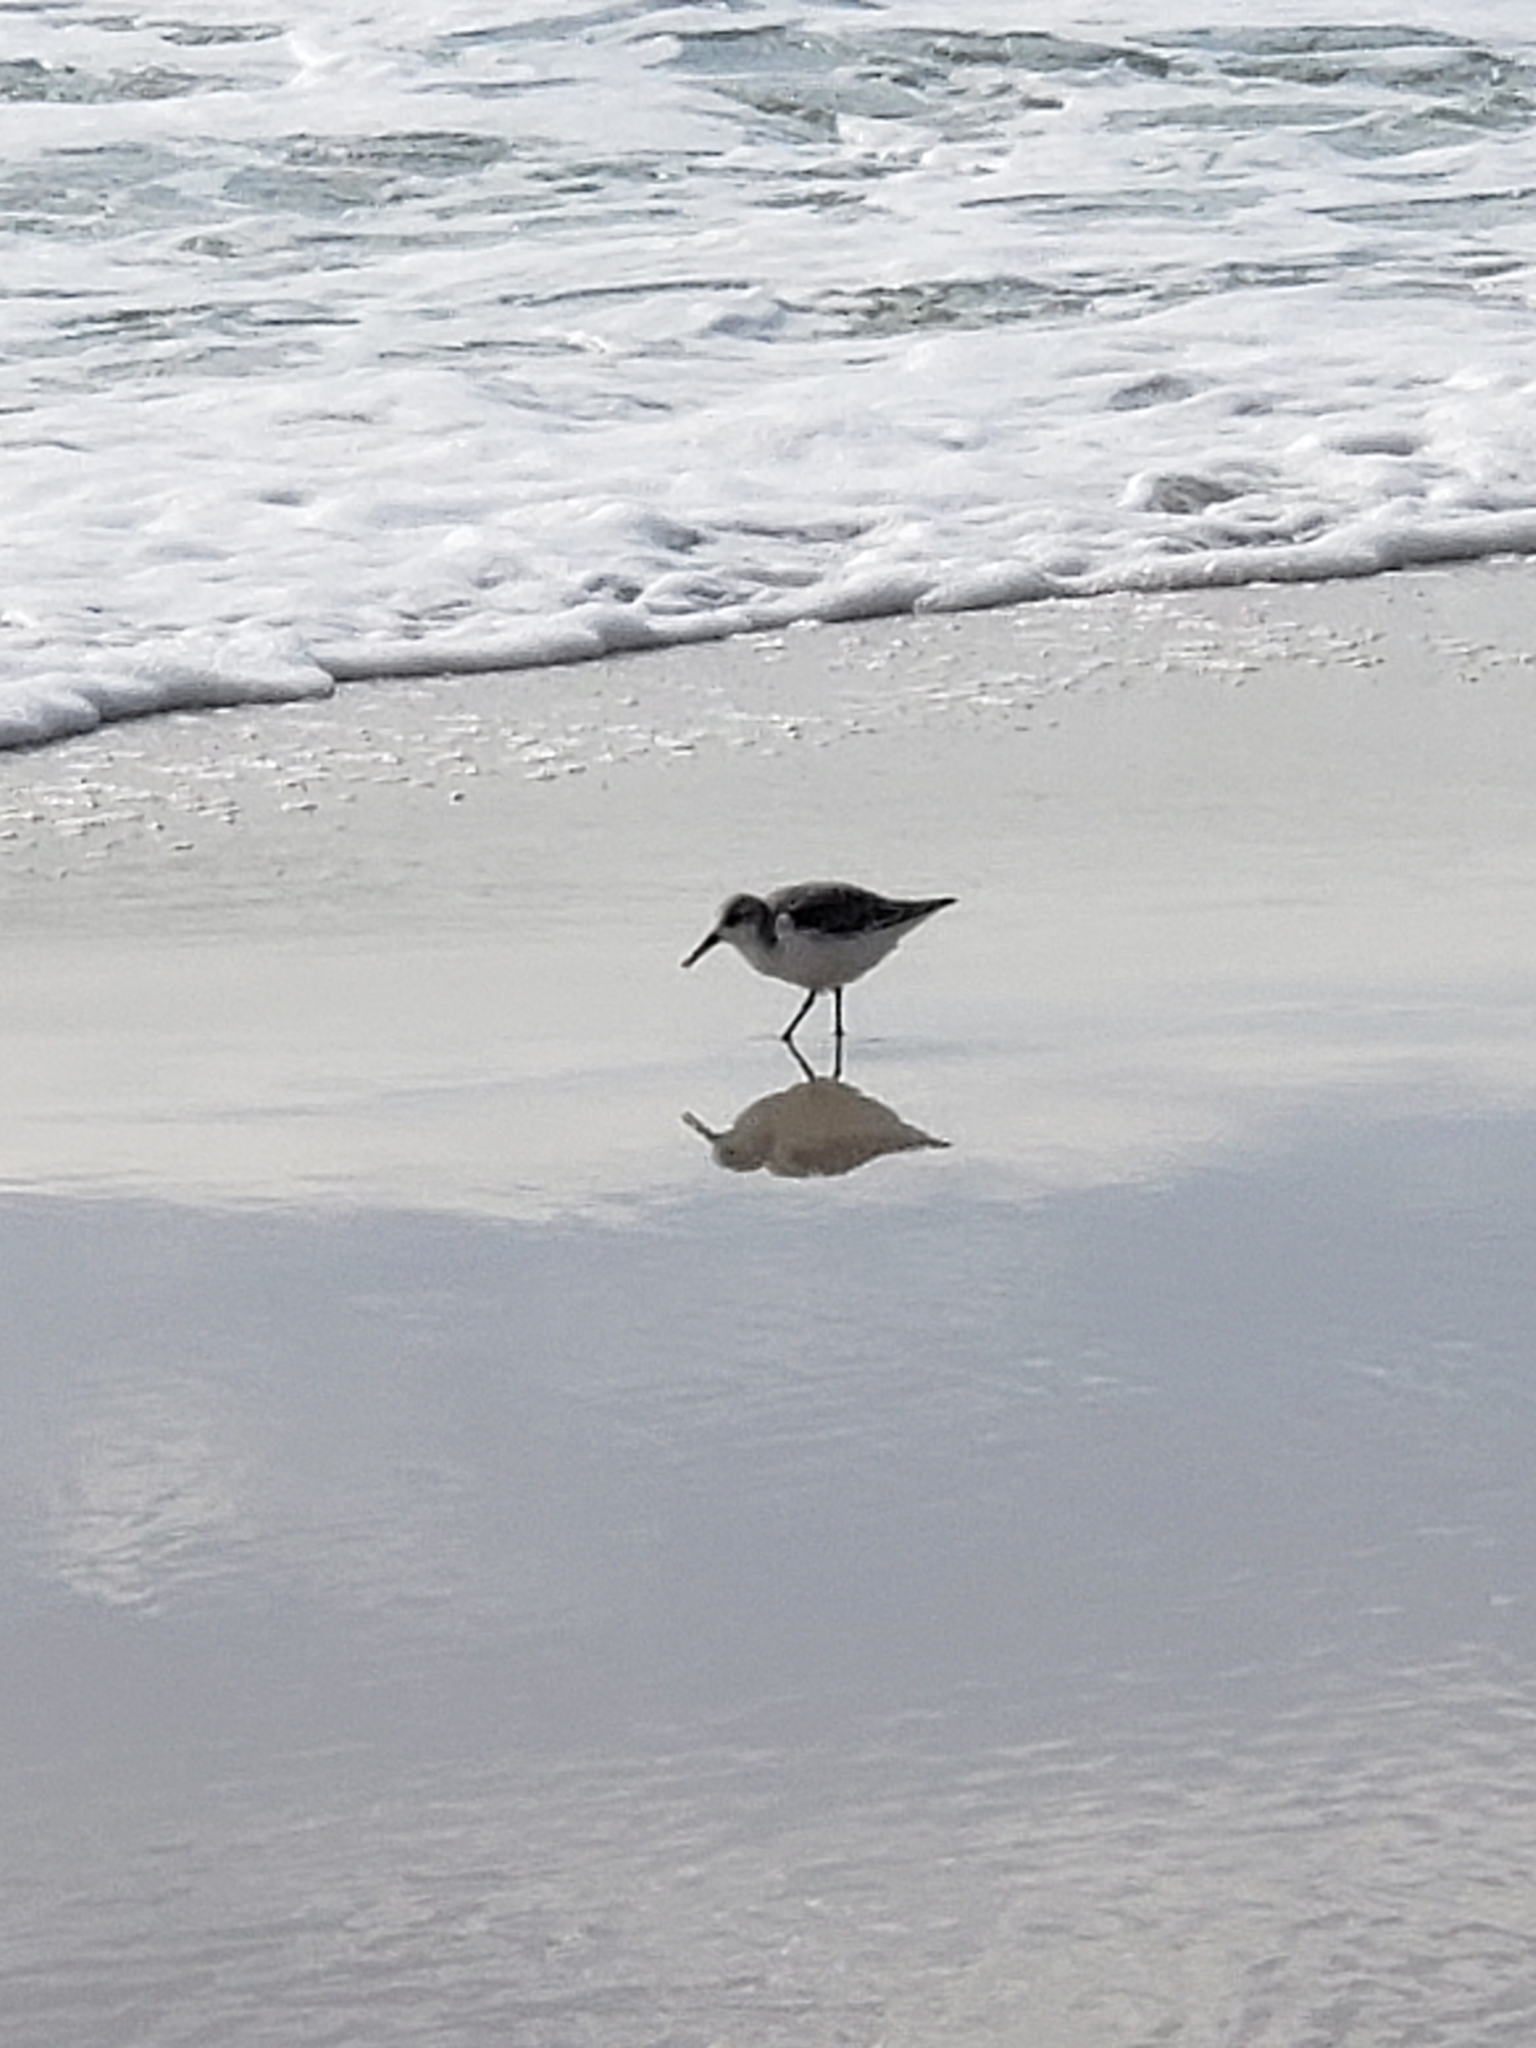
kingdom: Animalia
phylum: Chordata
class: Aves
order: Charadriiformes
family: Scolopacidae
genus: Calidris
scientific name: Calidris alba
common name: Sanderling
